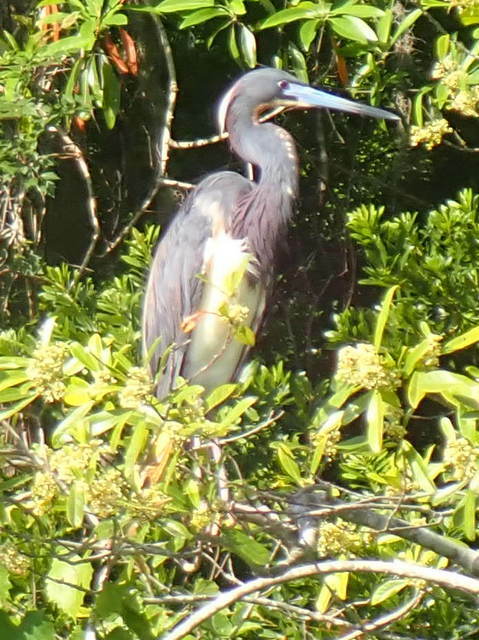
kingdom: Animalia
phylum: Chordata
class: Aves
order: Pelecaniformes
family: Ardeidae
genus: Egretta
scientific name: Egretta tricolor
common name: Tricolored heron
